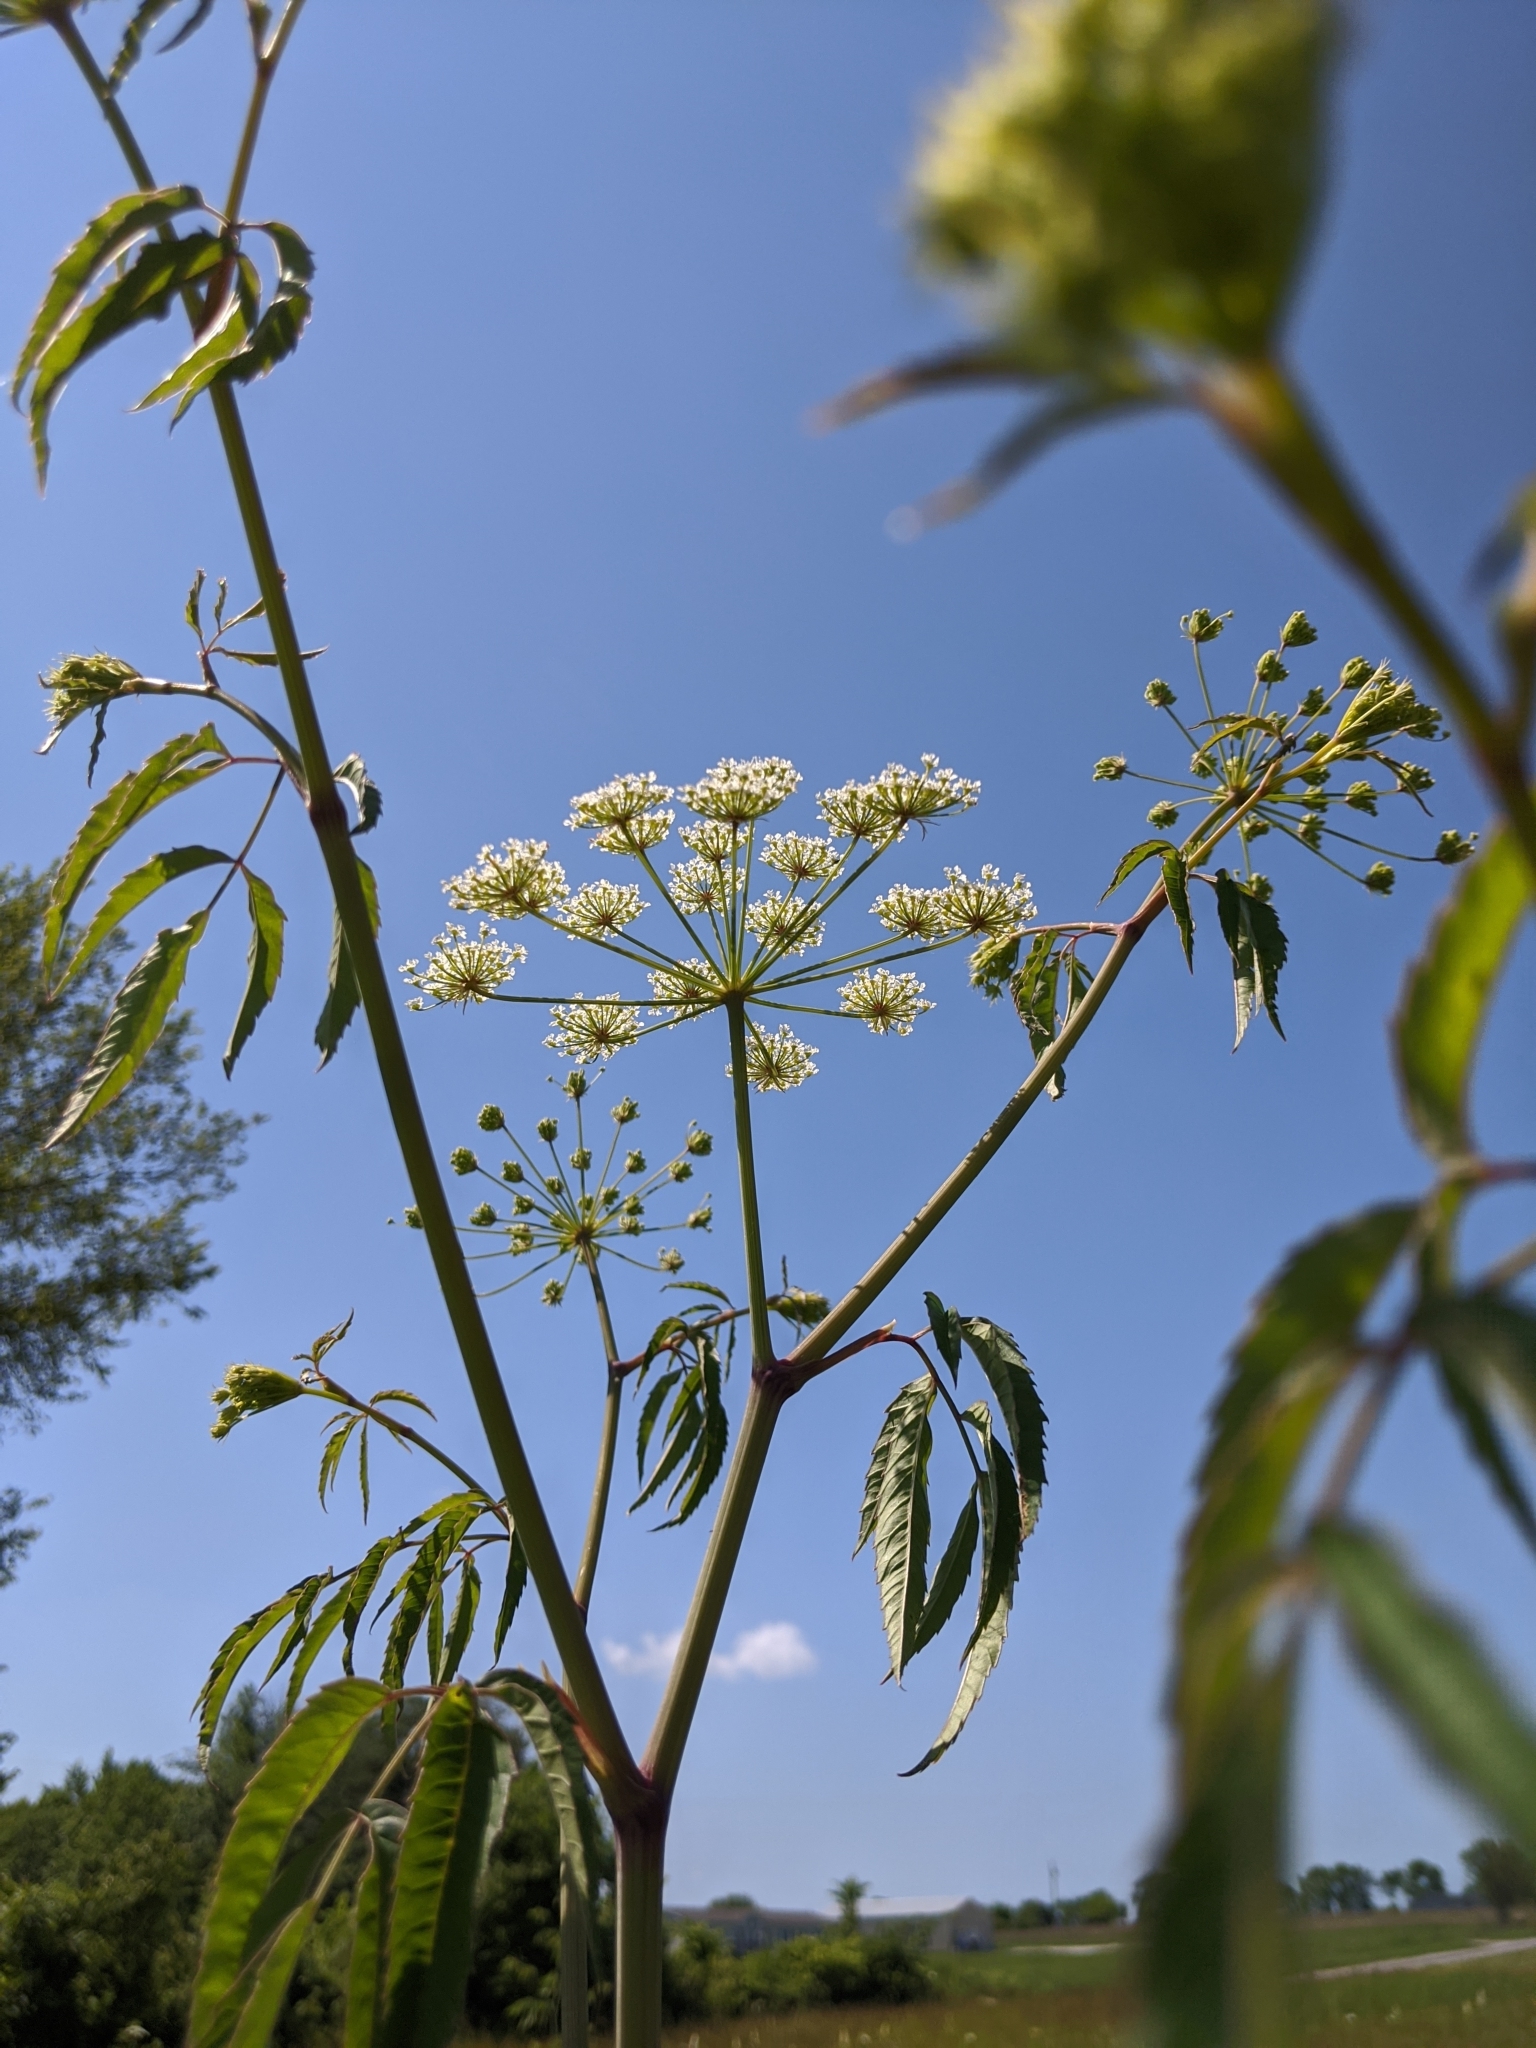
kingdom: Plantae
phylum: Tracheophyta
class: Magnoliopsida
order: Apiales
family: Apiaceae
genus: Cicuta
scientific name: Cicuta maculata
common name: Spotted cowbane
